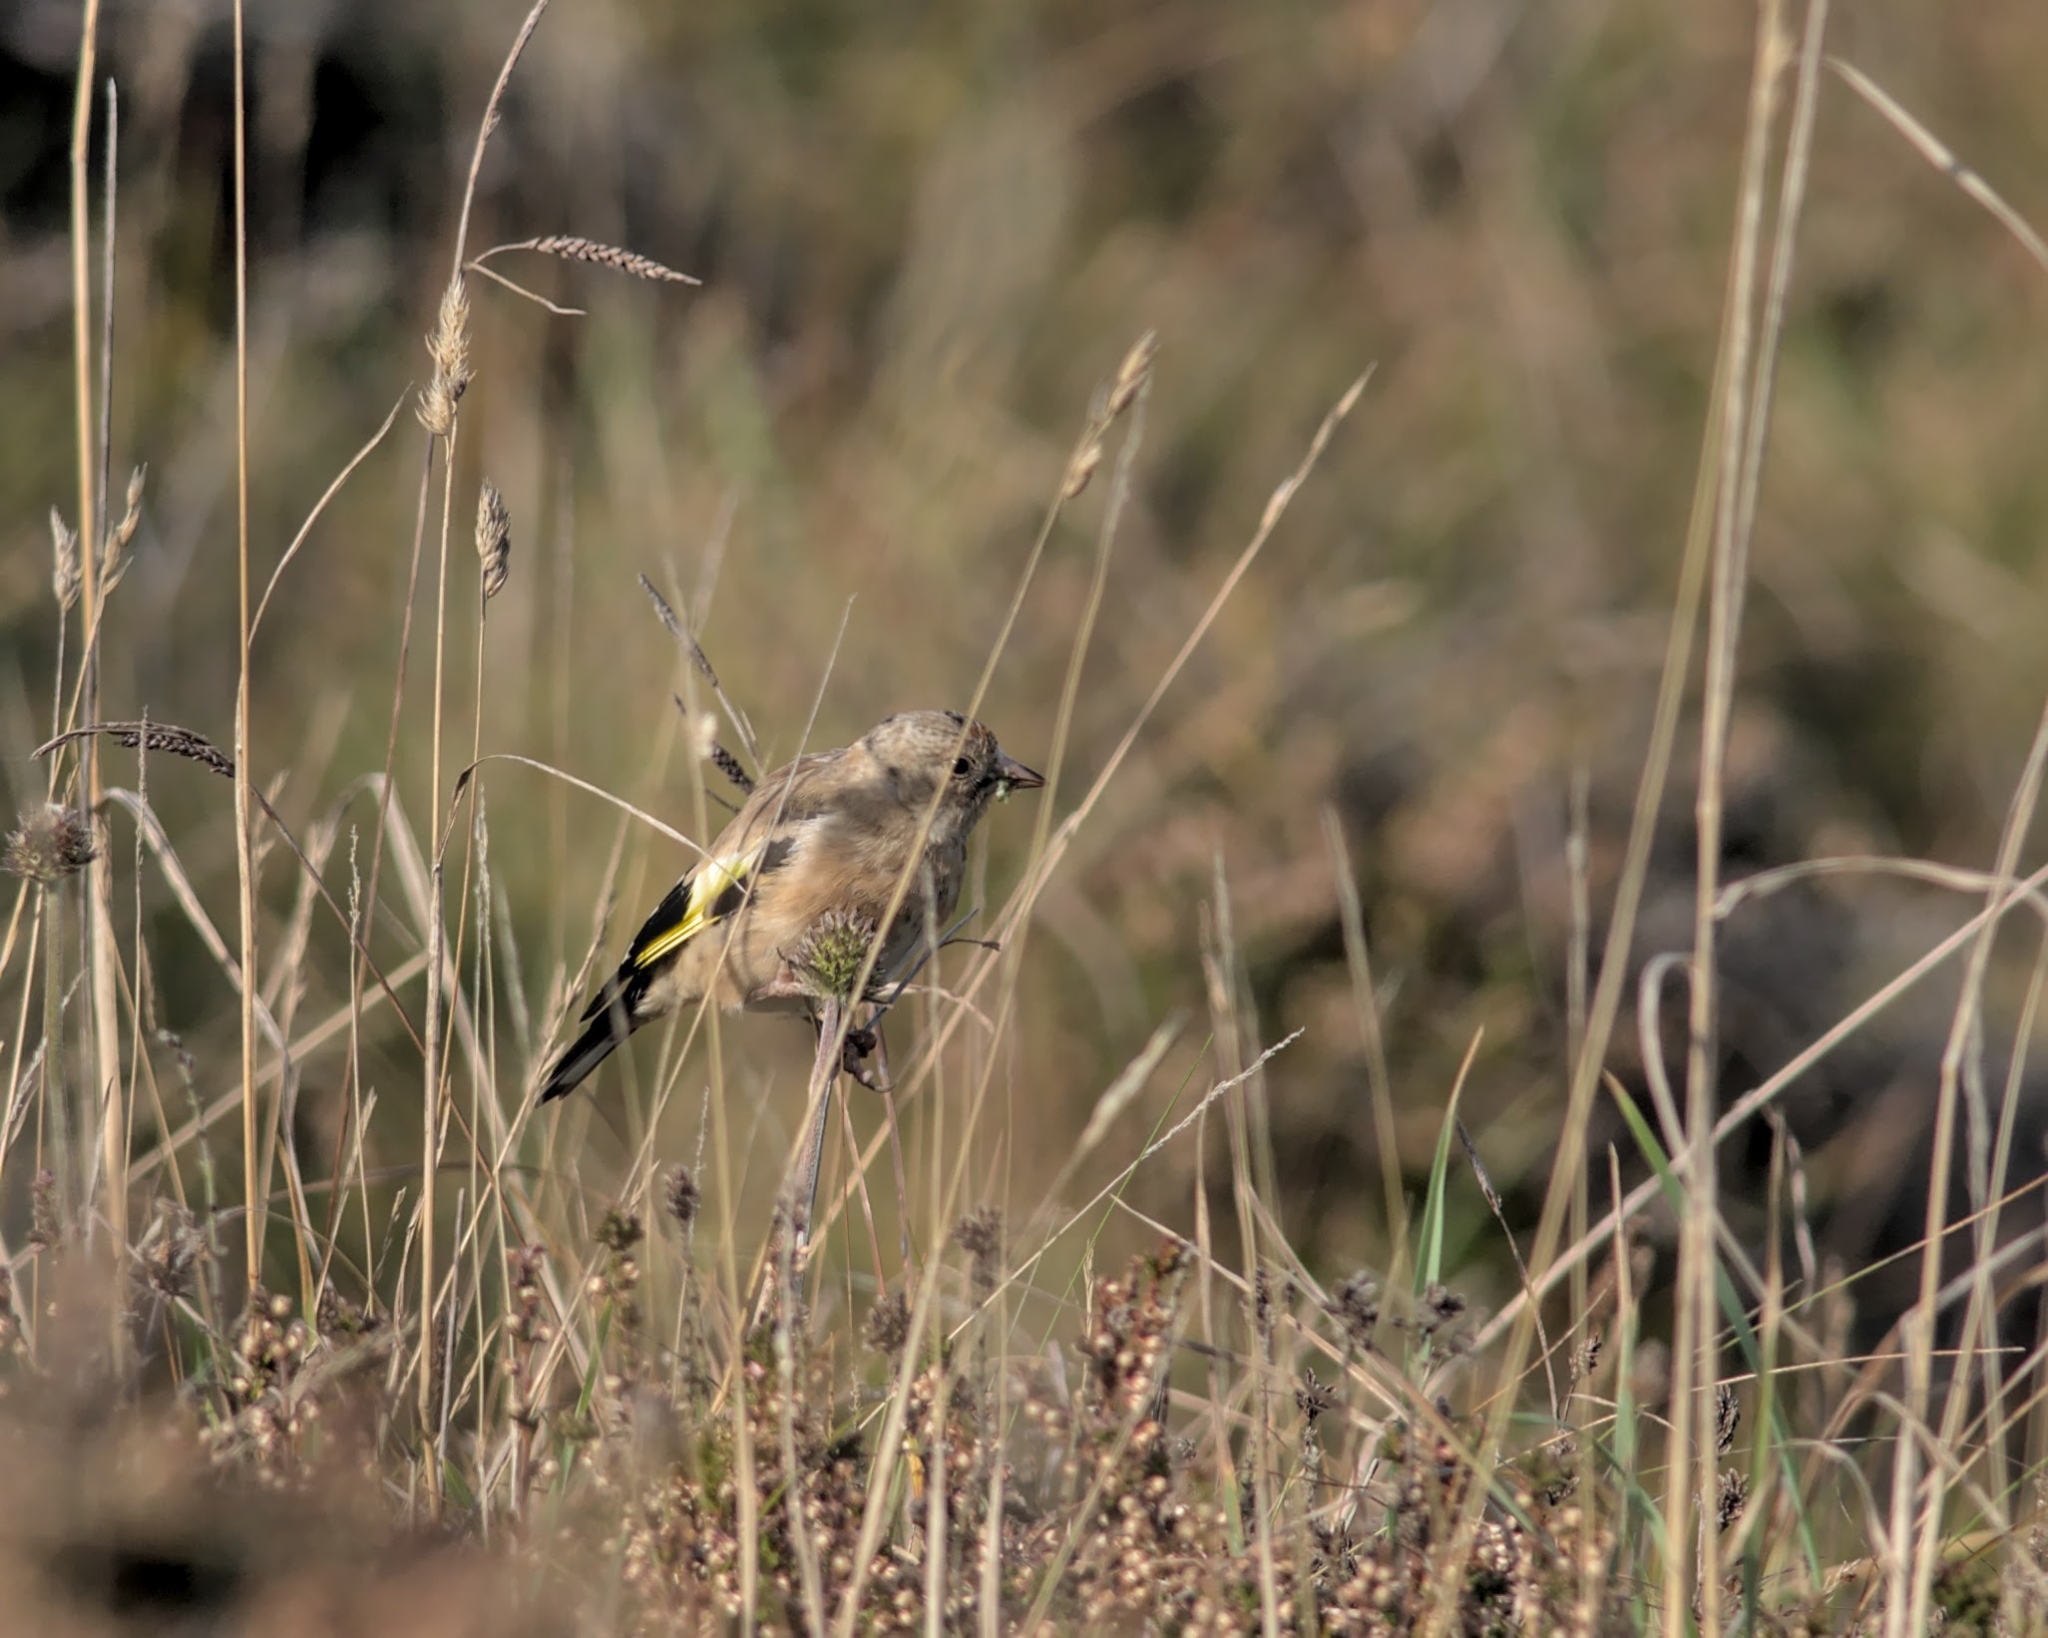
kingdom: Animalia
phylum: Chordata
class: Aves
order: Passeriformes
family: Fringillidae
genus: Carduelis
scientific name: Carduelis carduelis
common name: European goldfinch
